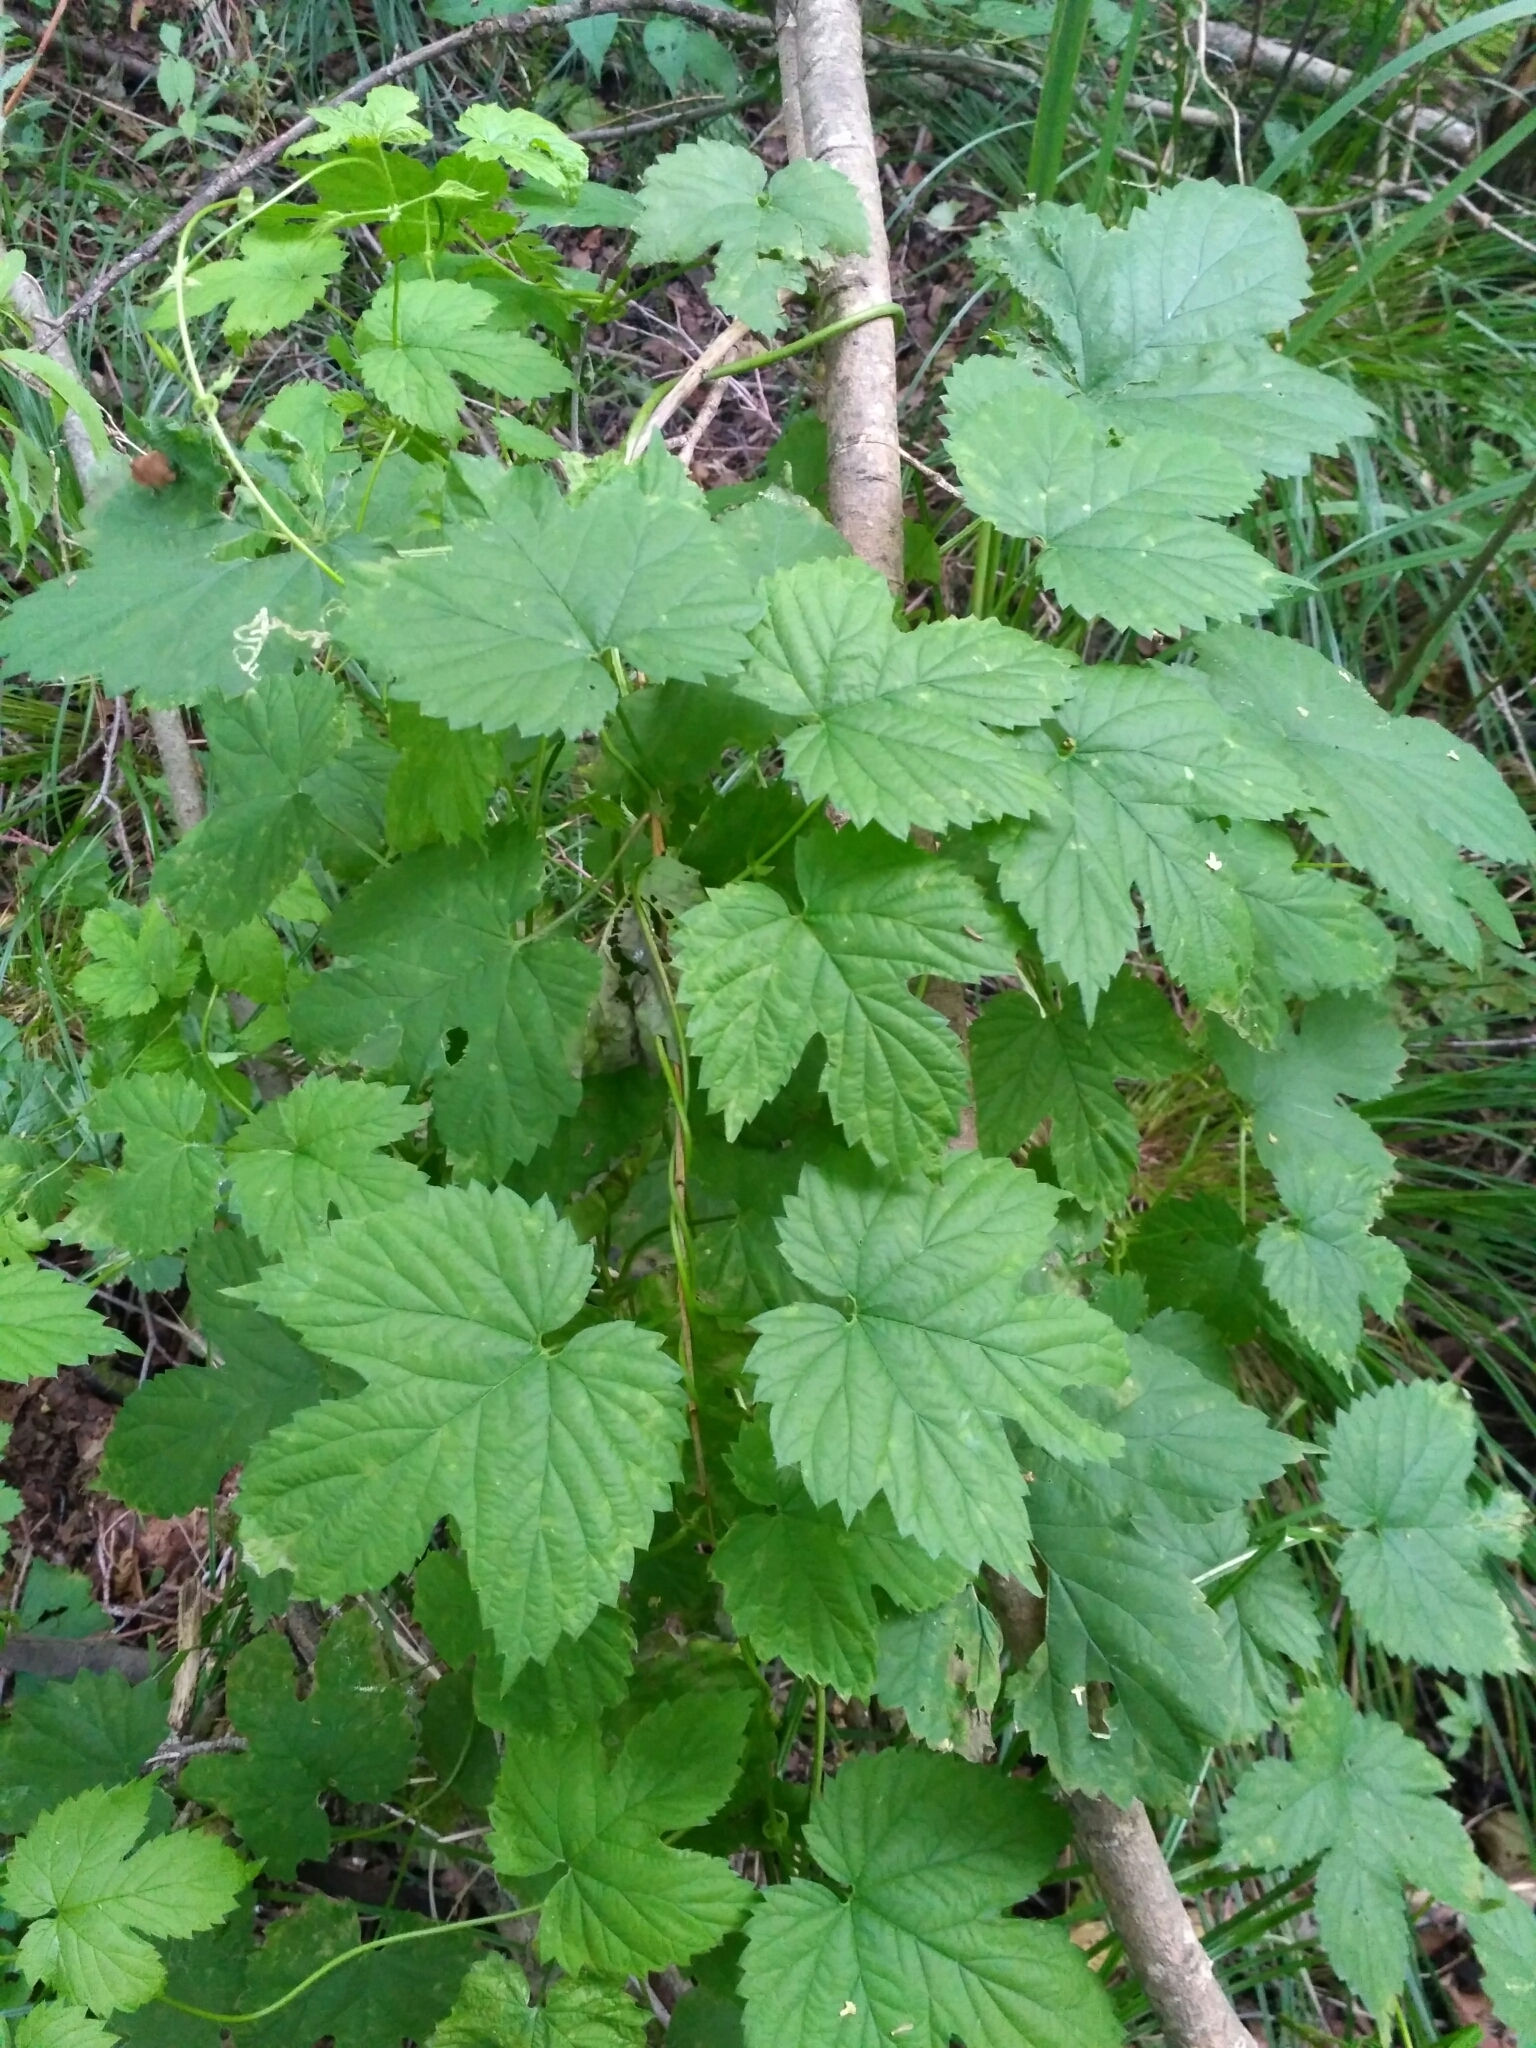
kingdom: Plantae
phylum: Tracheophyta
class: Magnoliopsida
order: Rosales
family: Cannabaceae
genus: Humulus
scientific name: Humulus lupulus
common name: Hop
